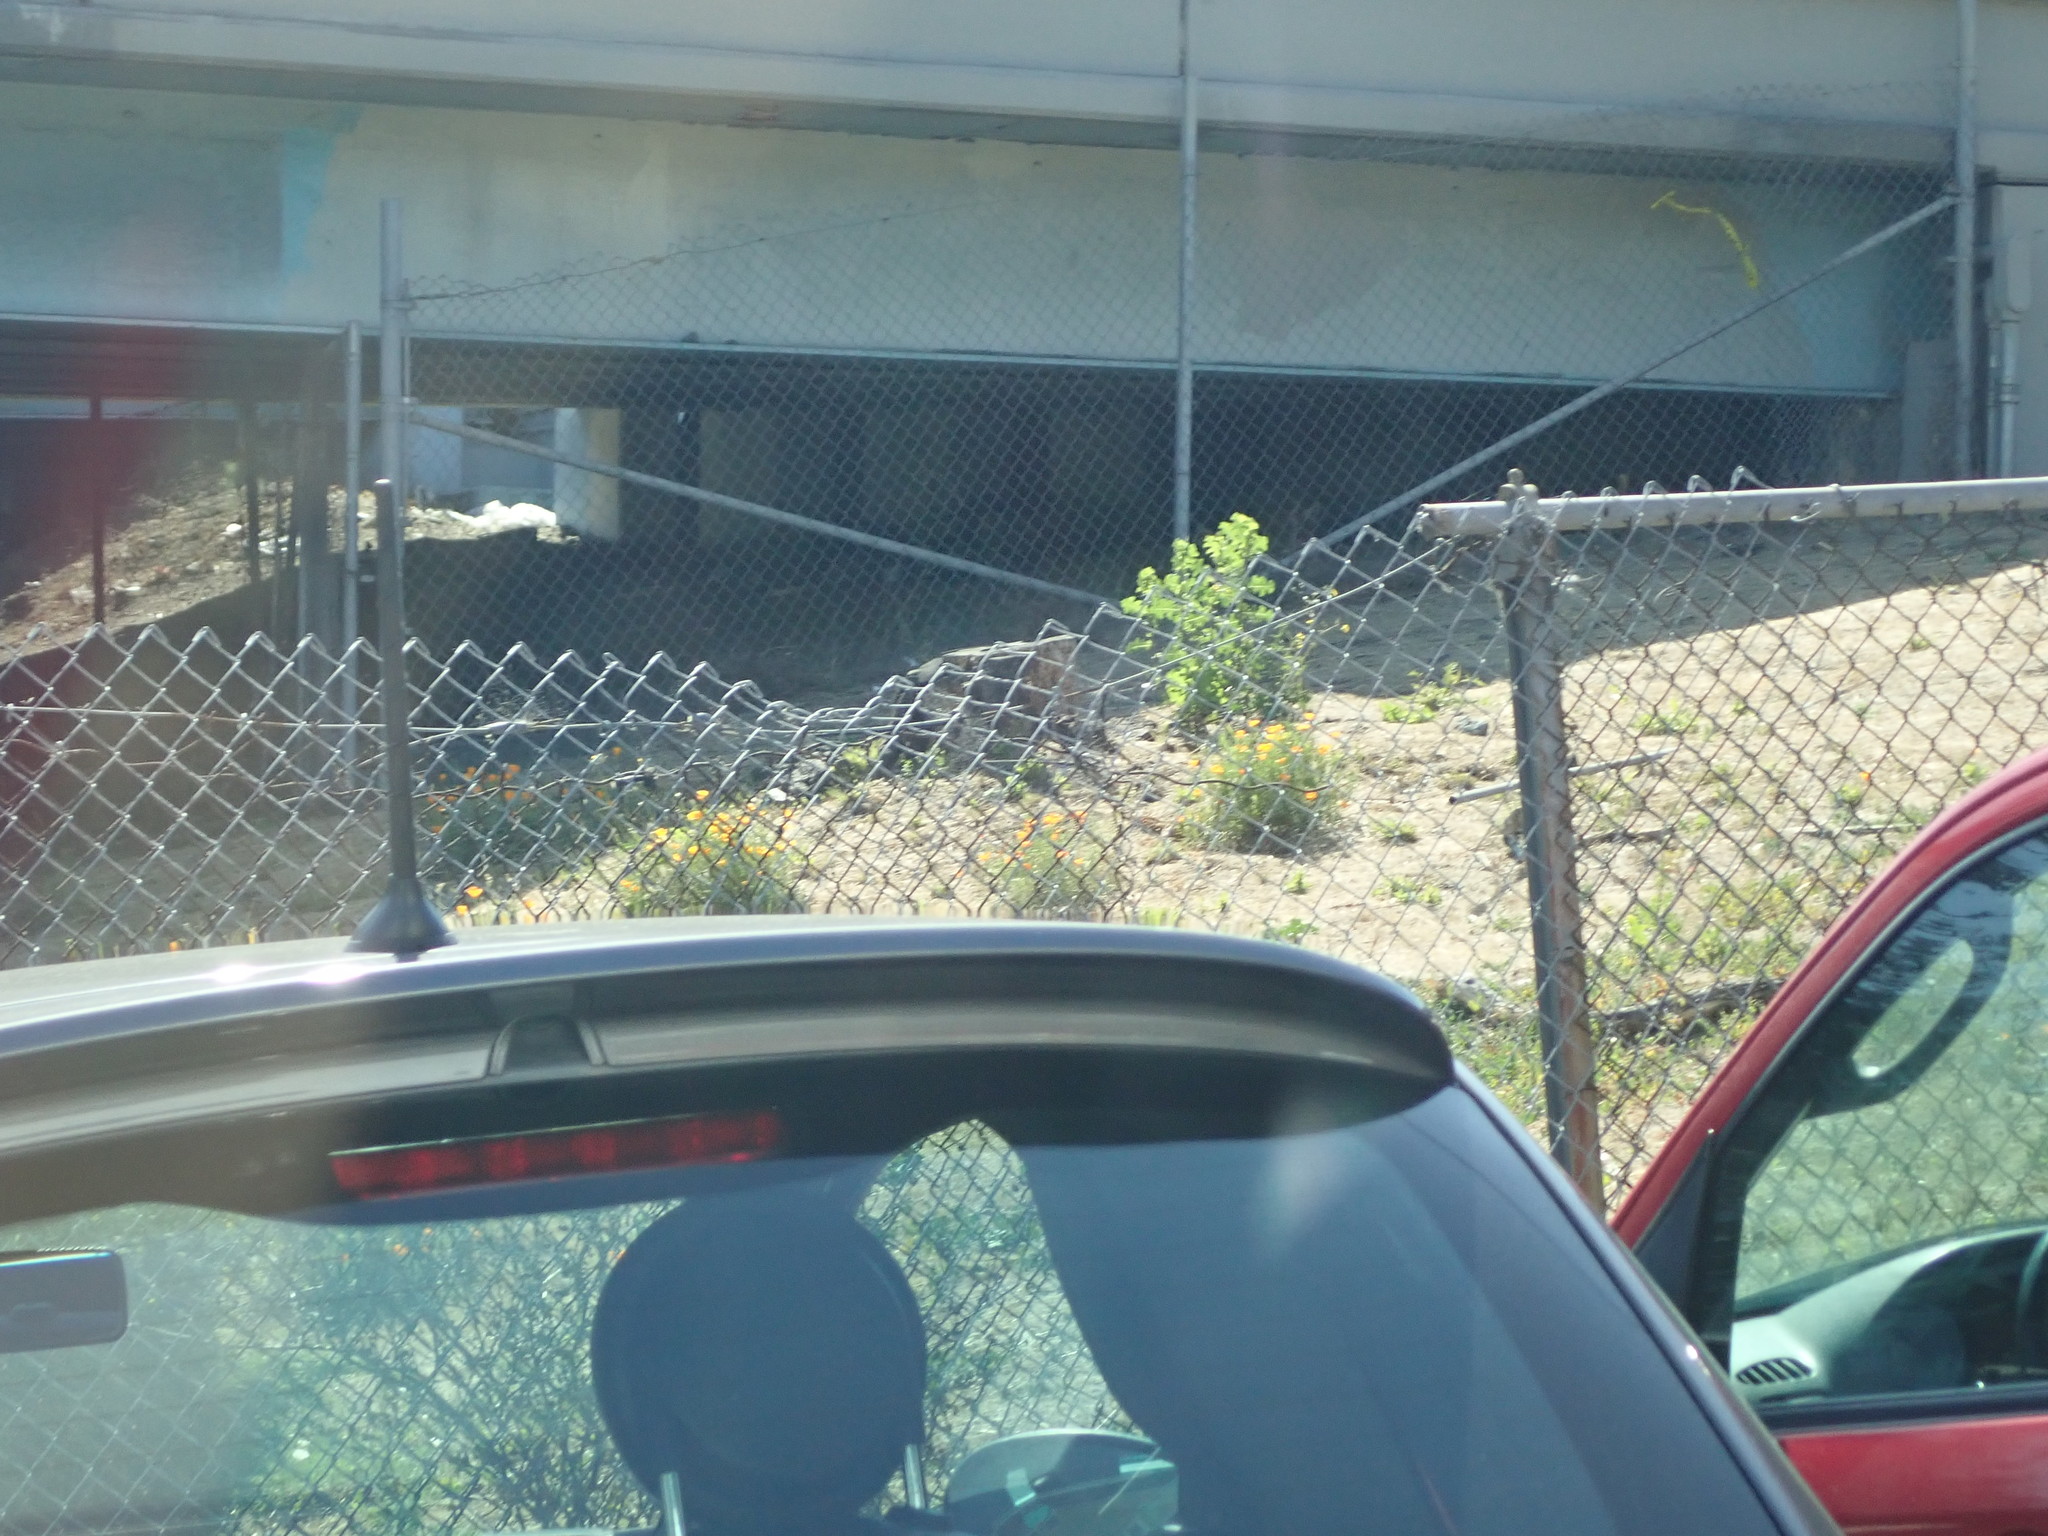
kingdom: Plantae
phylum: Tracheophyta
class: Magnoliopsida
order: Ranunculales
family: Papaveraceae
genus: Eschscholzia
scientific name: Eschscholzia californica
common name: California poppy
